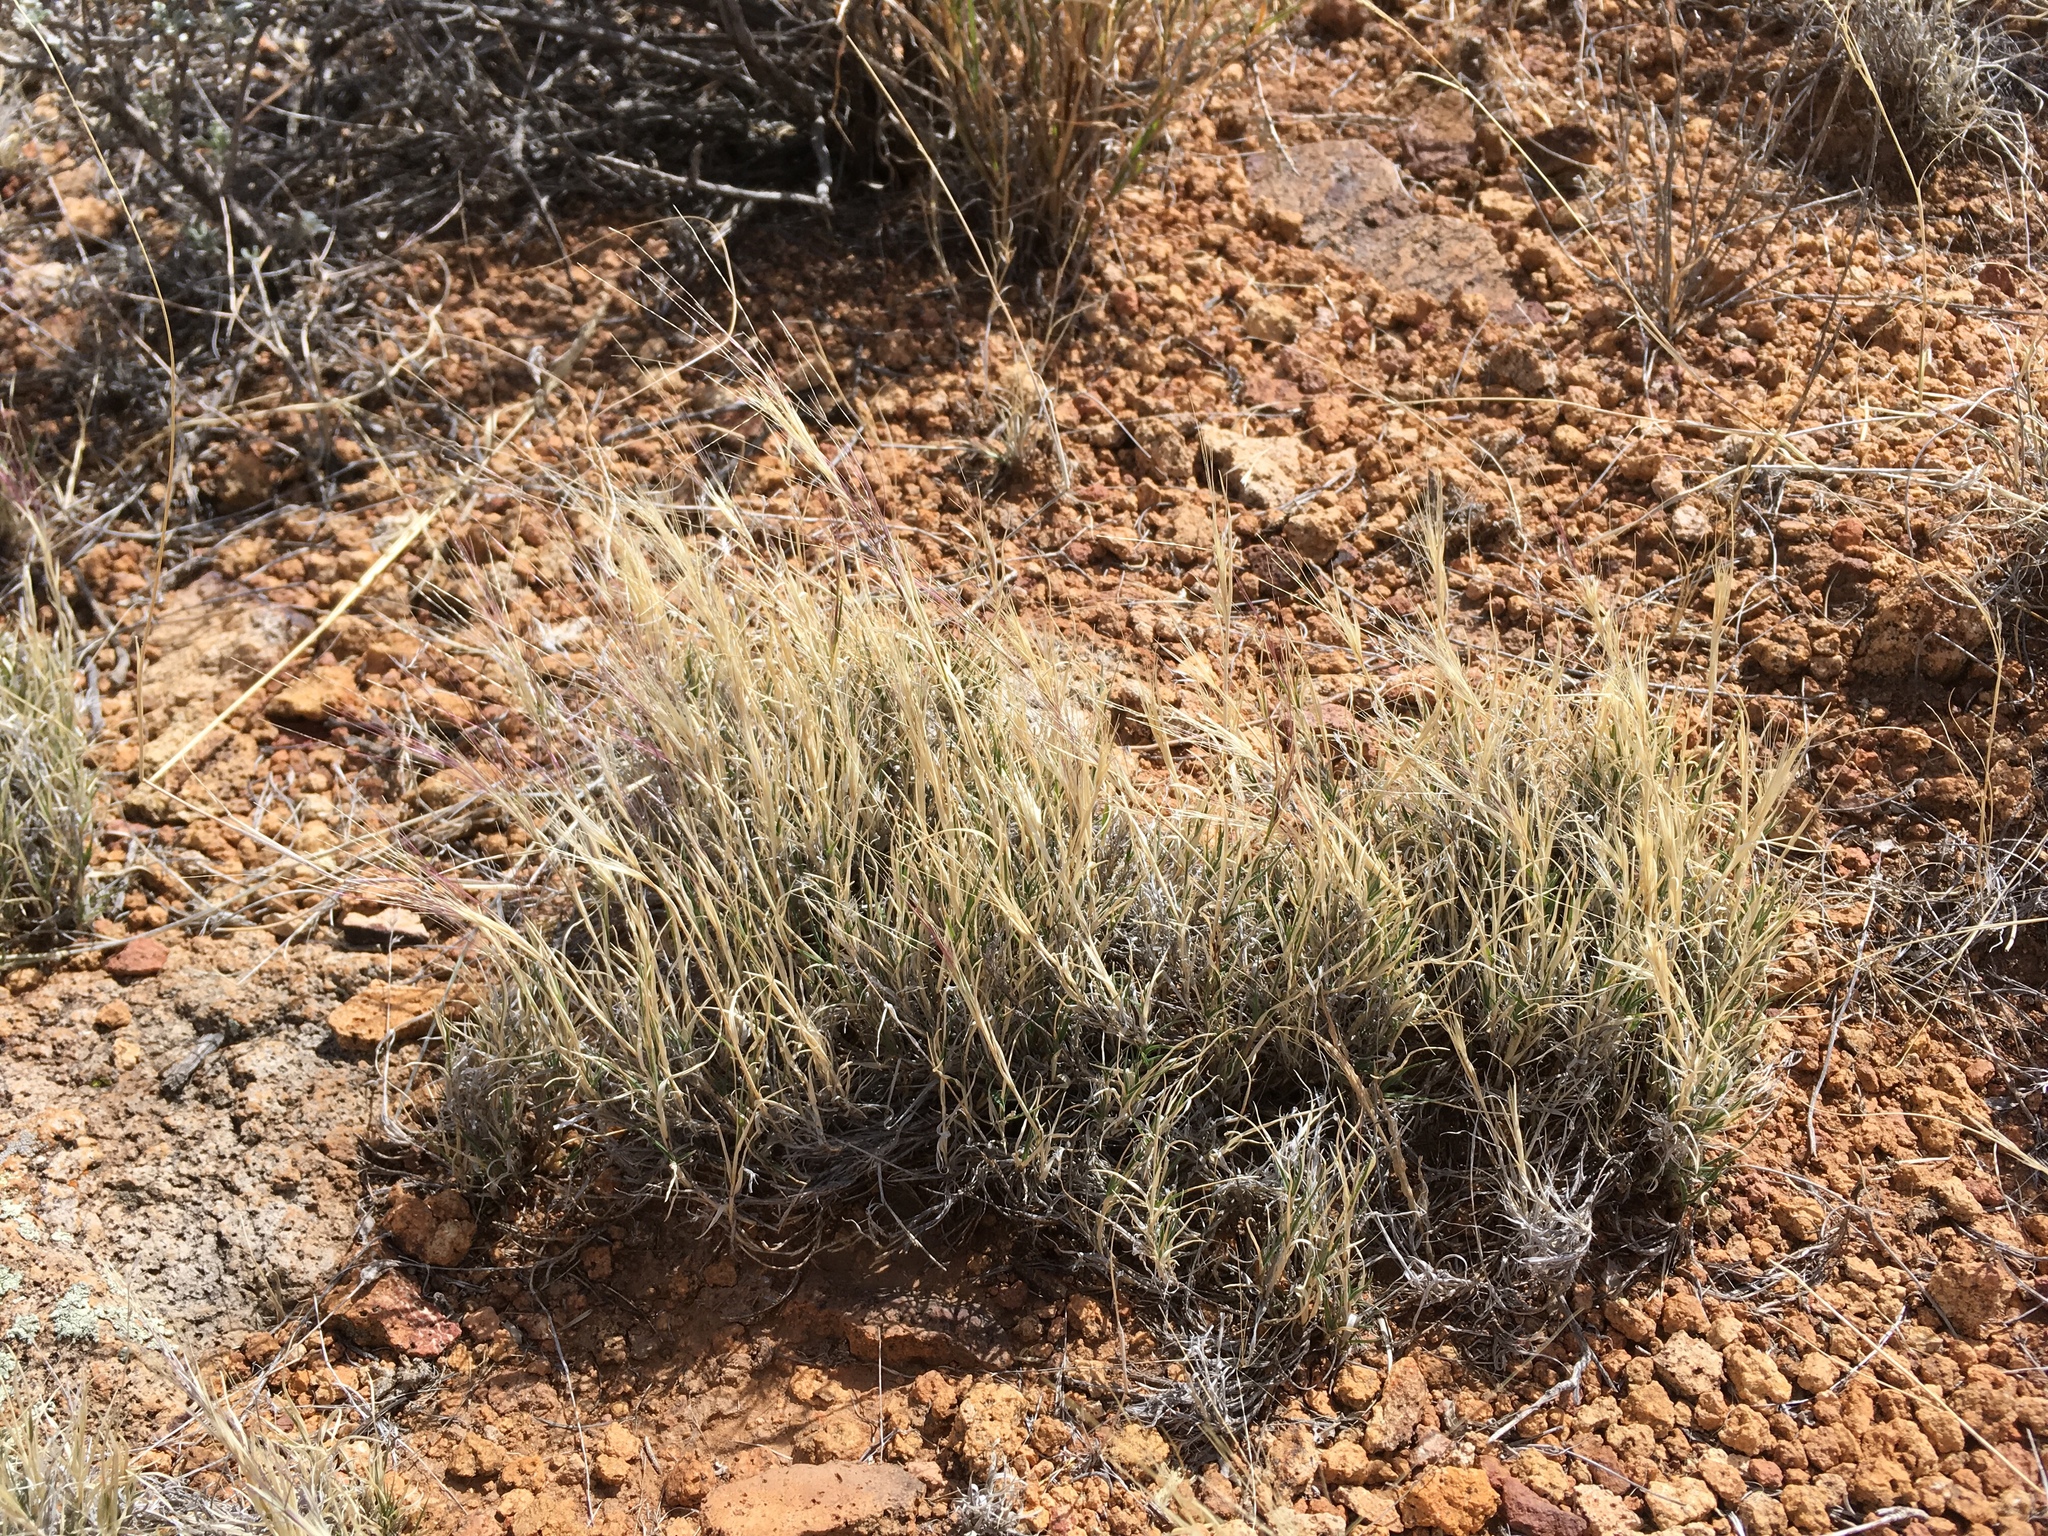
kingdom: Plantae
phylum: Tracheophyta
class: Liliopsida
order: Poales
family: Poaceae
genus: Scleropogon
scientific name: Scleropogon brevifolius
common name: Burro grass
